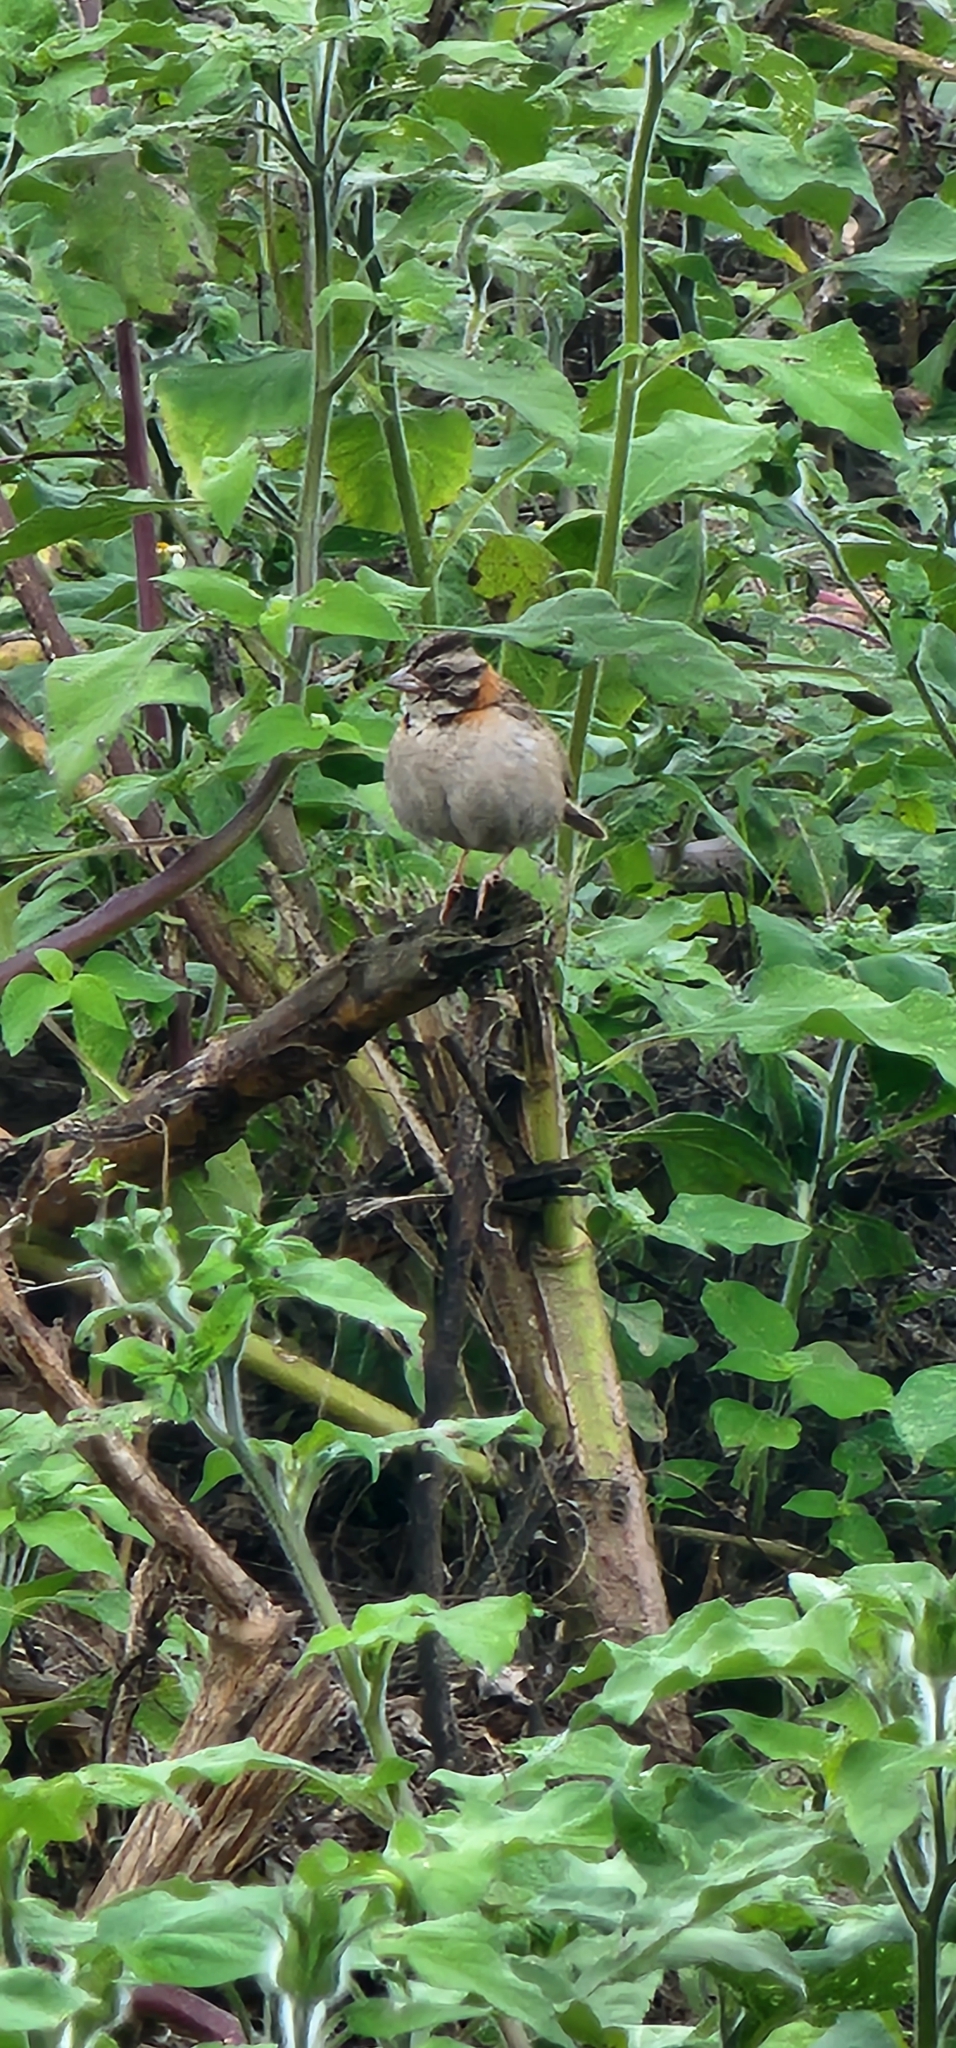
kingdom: Animalia
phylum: Chordata
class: Aves
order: Passeriformes
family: Passerellidae
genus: Zonotrichia
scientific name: Zonotrichia capensis
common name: Rufous-collared sparrow
